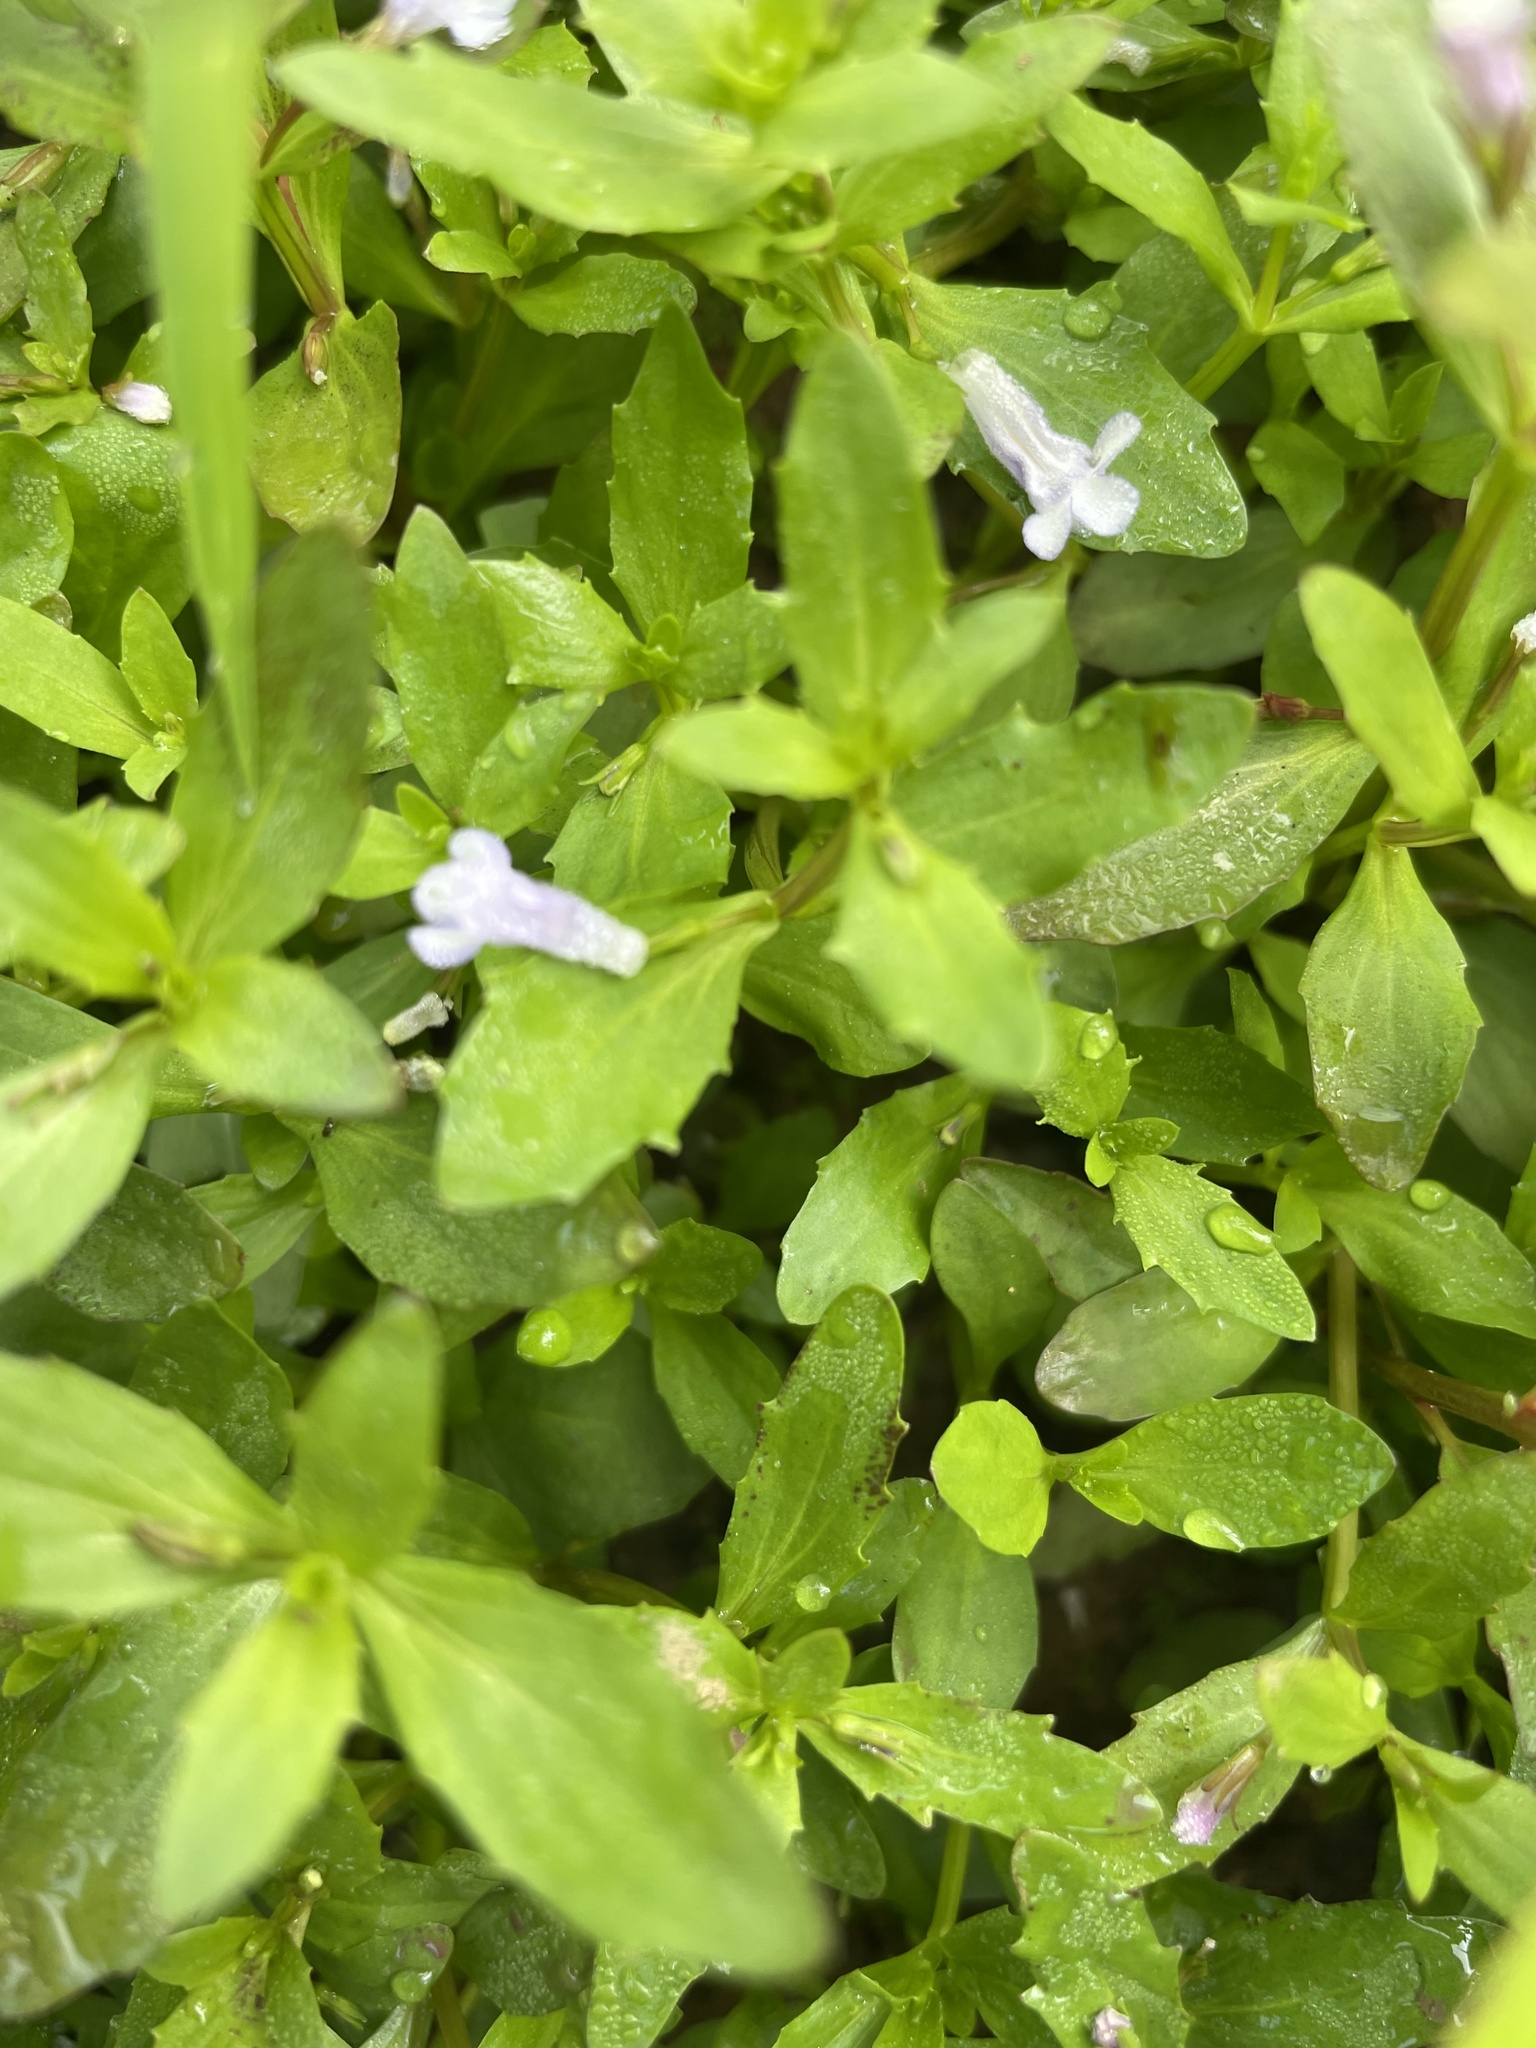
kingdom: Plantae
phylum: Tracheophyta
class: Magnoliopsida
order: Lamiales
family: Linderniaceae
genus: Lindernia
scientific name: Lindernia dubia
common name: Annual false pimpernel
